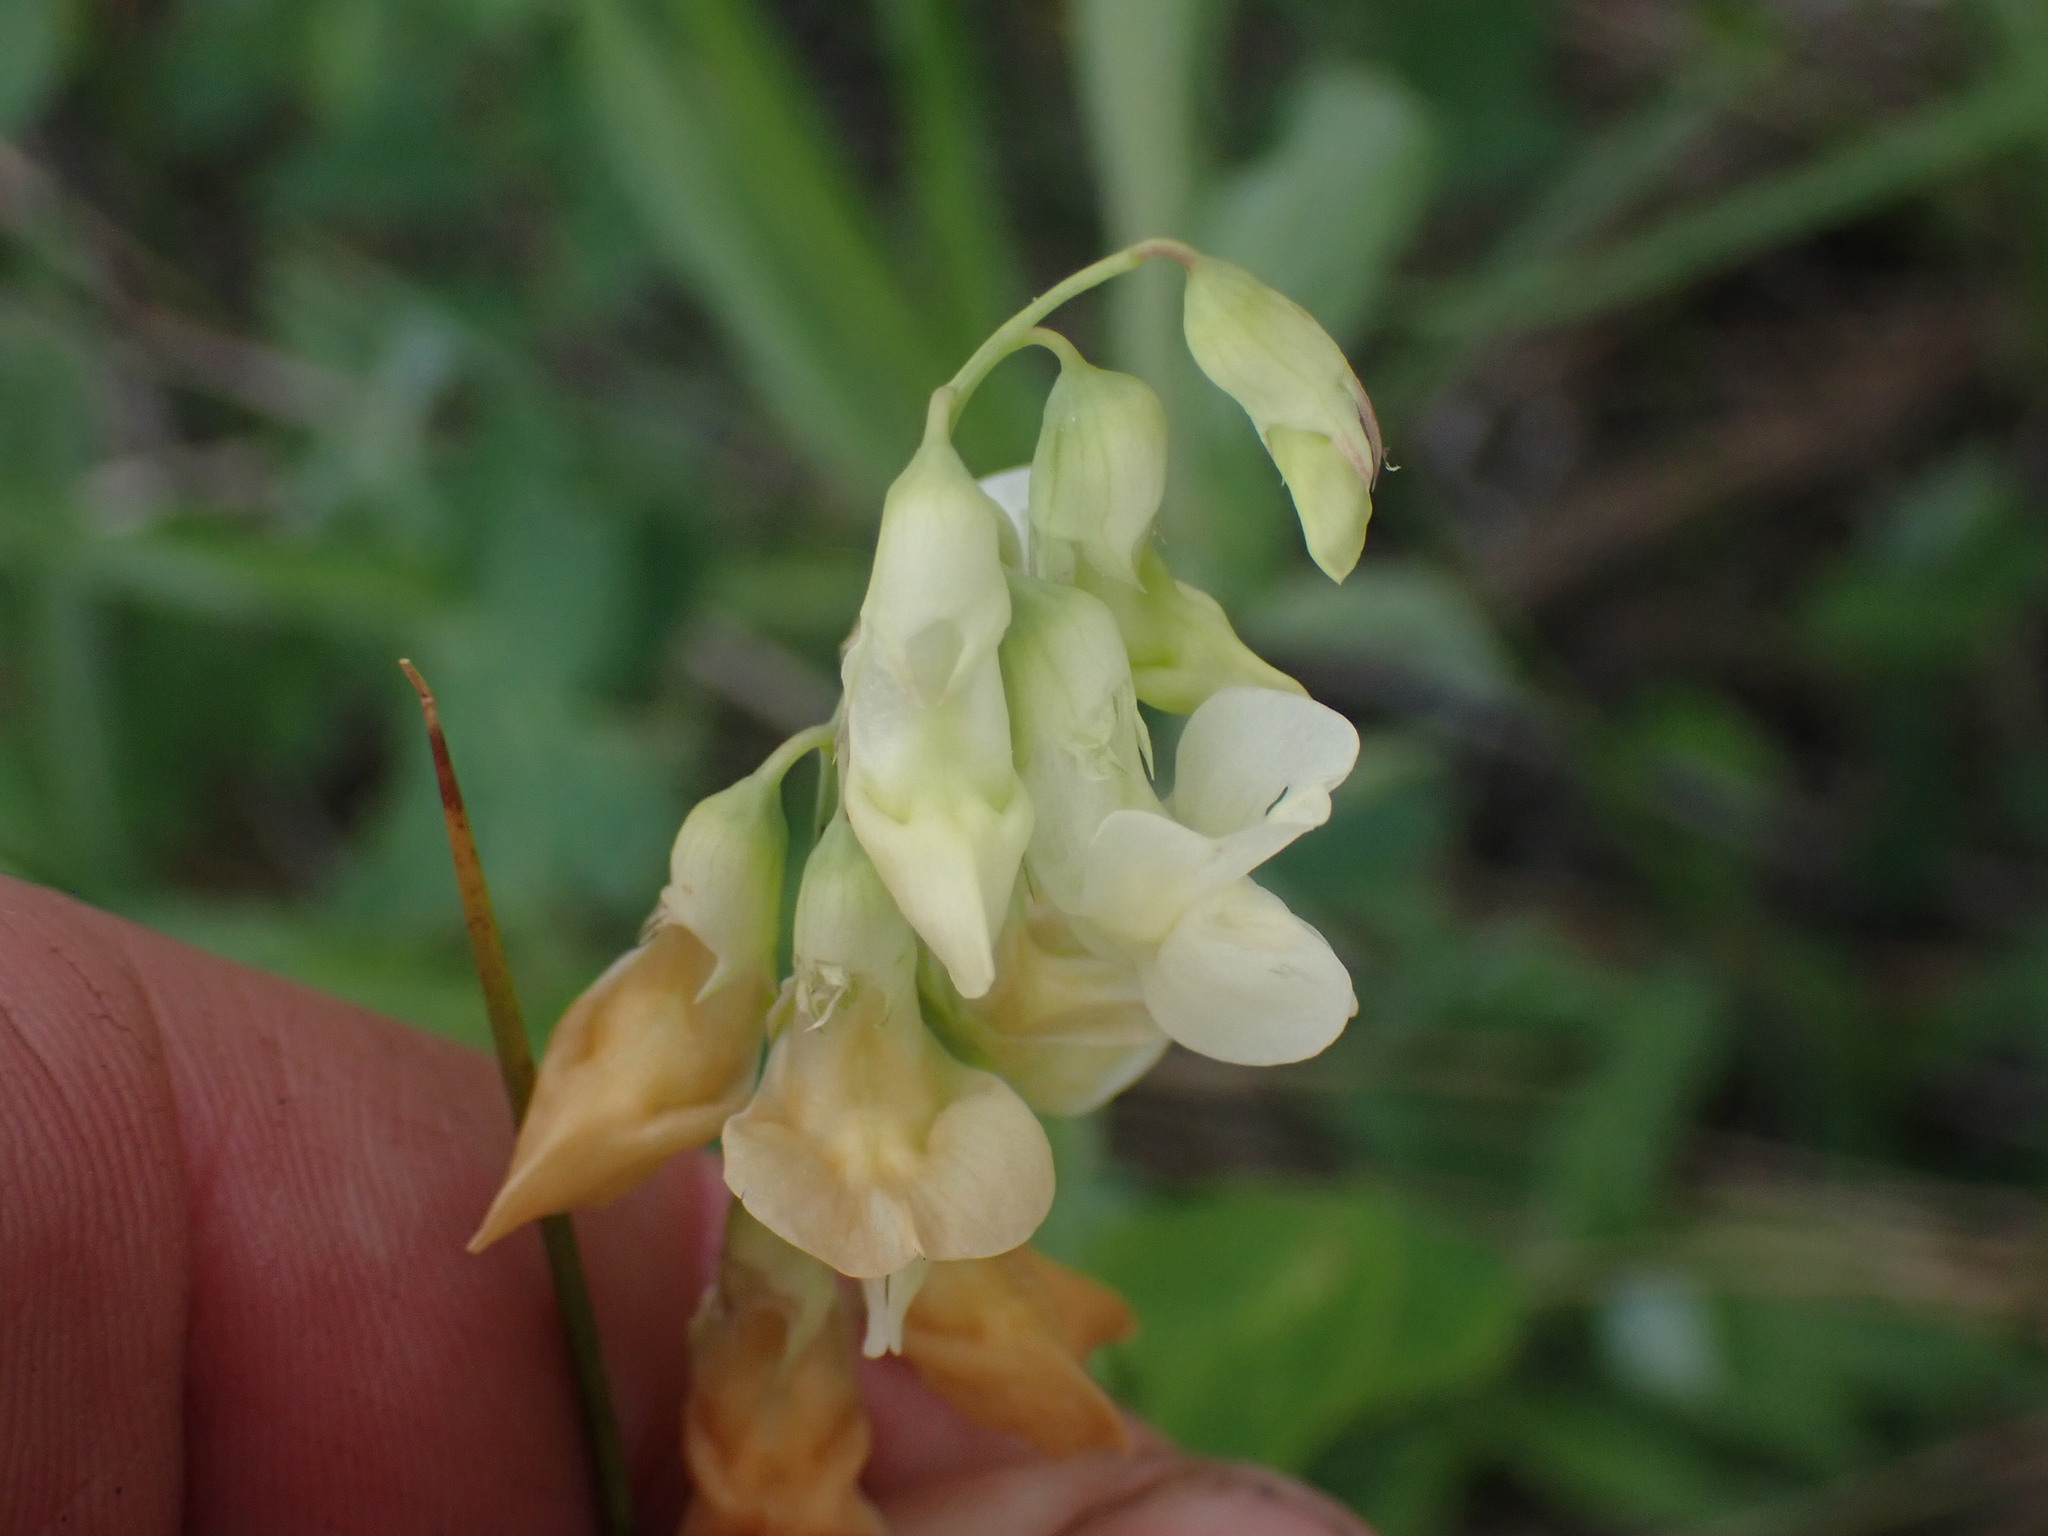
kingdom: Plantae
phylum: Tracheophyta
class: Magnoliopsida
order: Fabales
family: Fabaceae
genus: Lathyrus
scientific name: Lathyrus ochroleucus
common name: Pale vetchling
